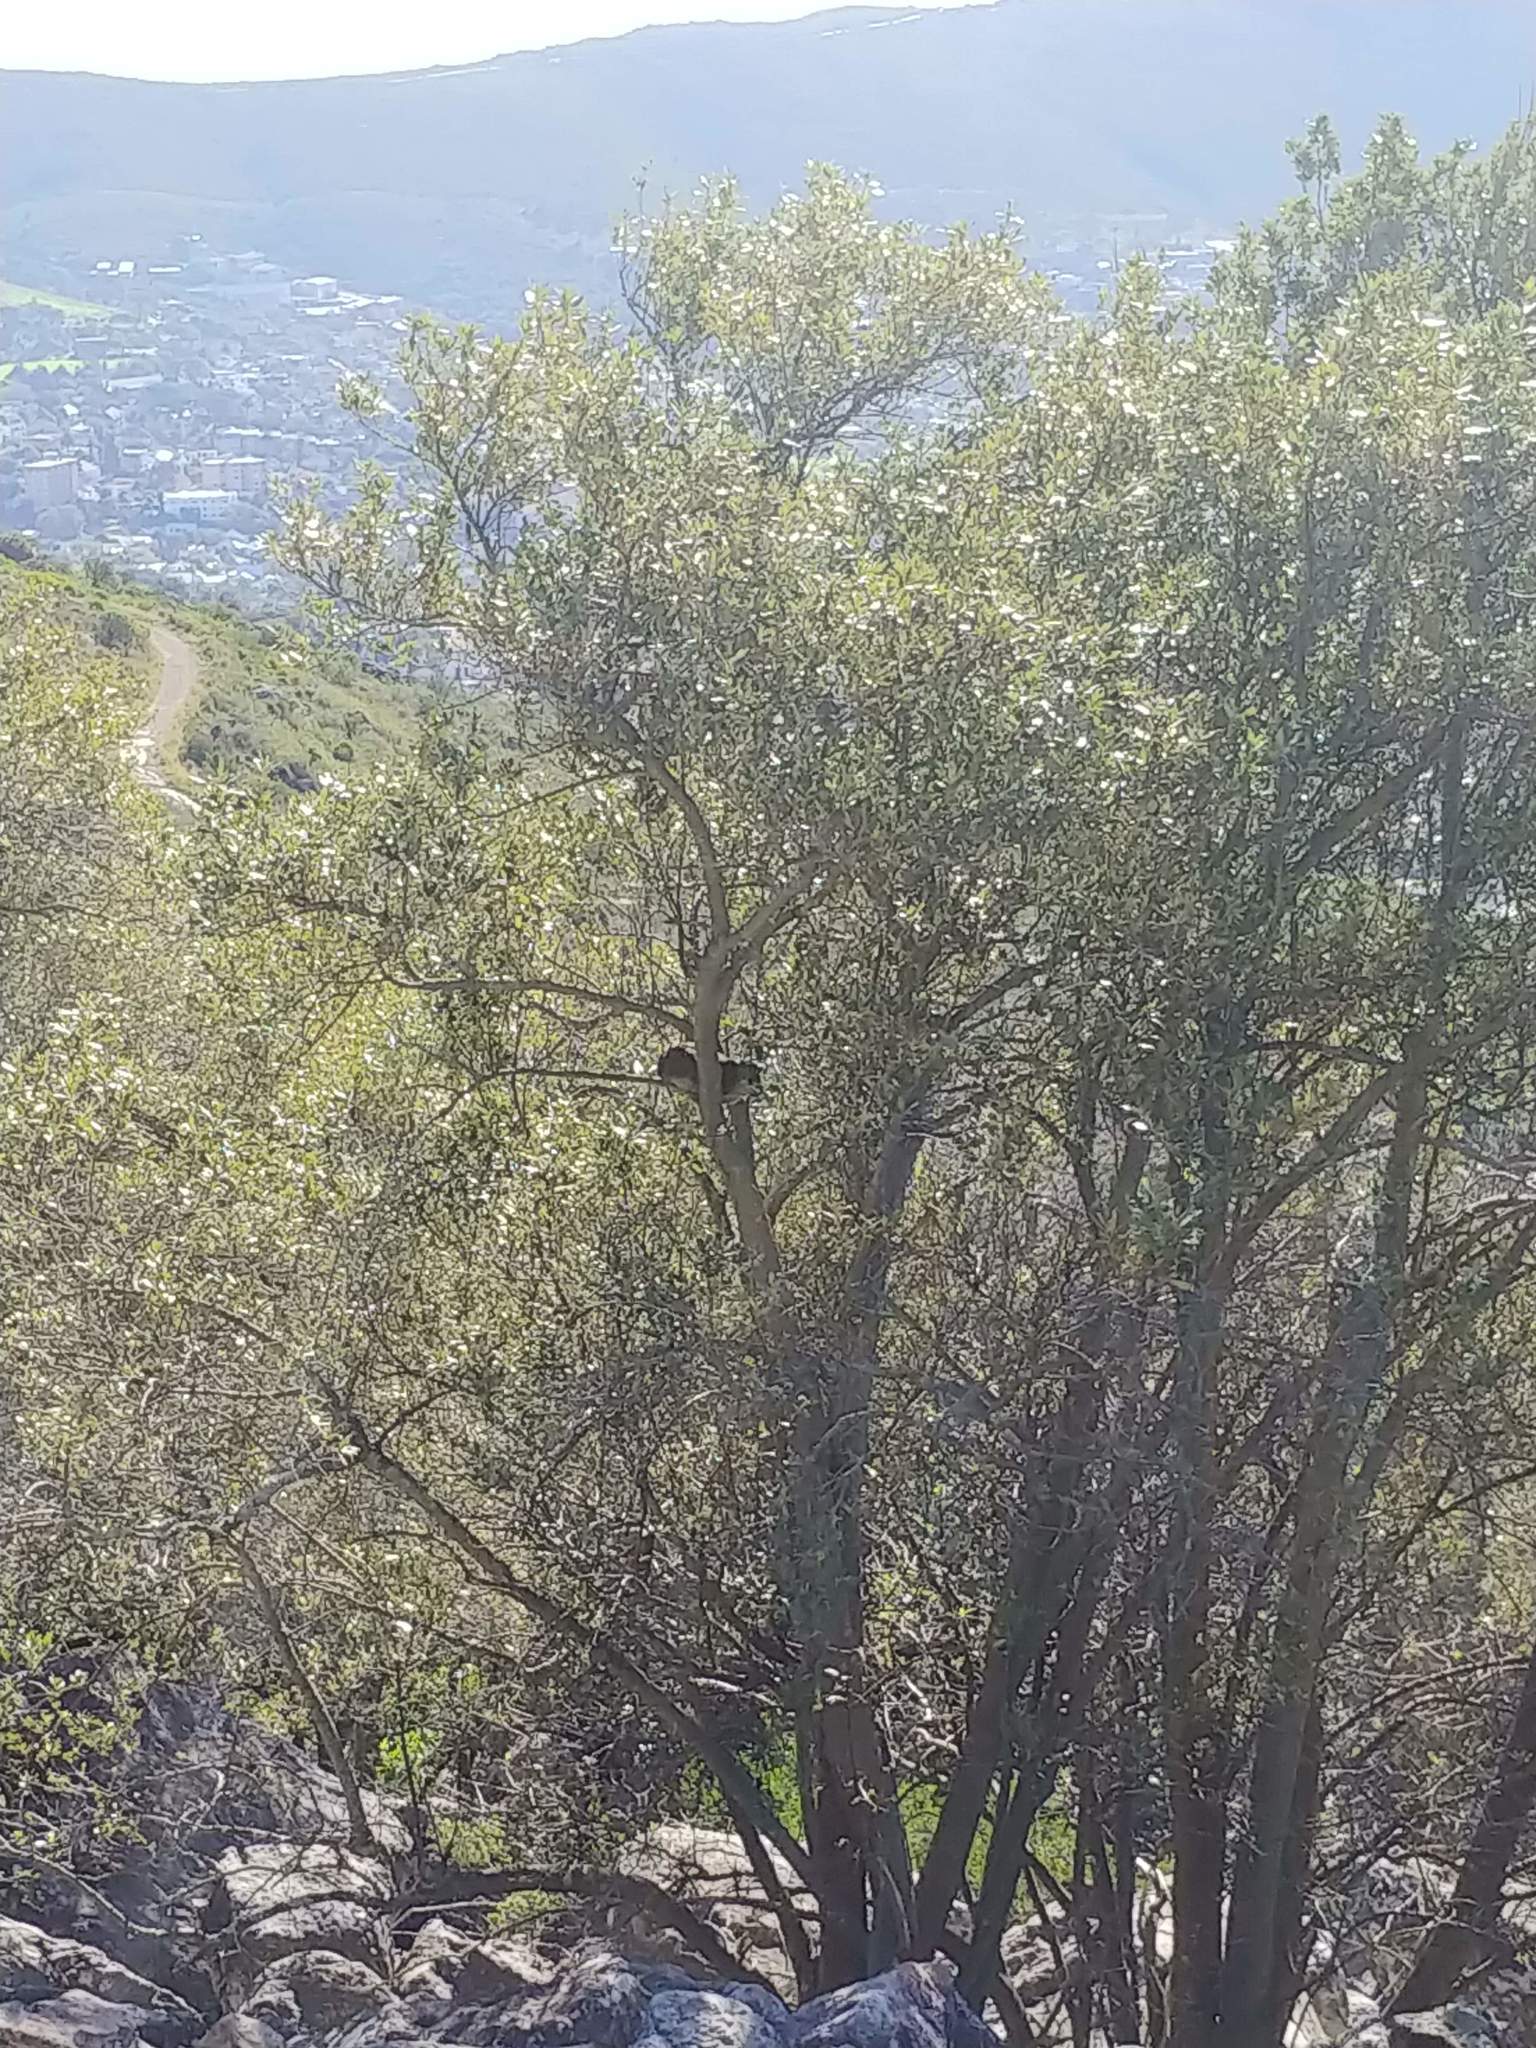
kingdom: Animalia
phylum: Chordata
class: Mammalia
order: Hyracoidea
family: Procaviidae
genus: Procavia
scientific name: Procavia capensis
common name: Rock hyrax
